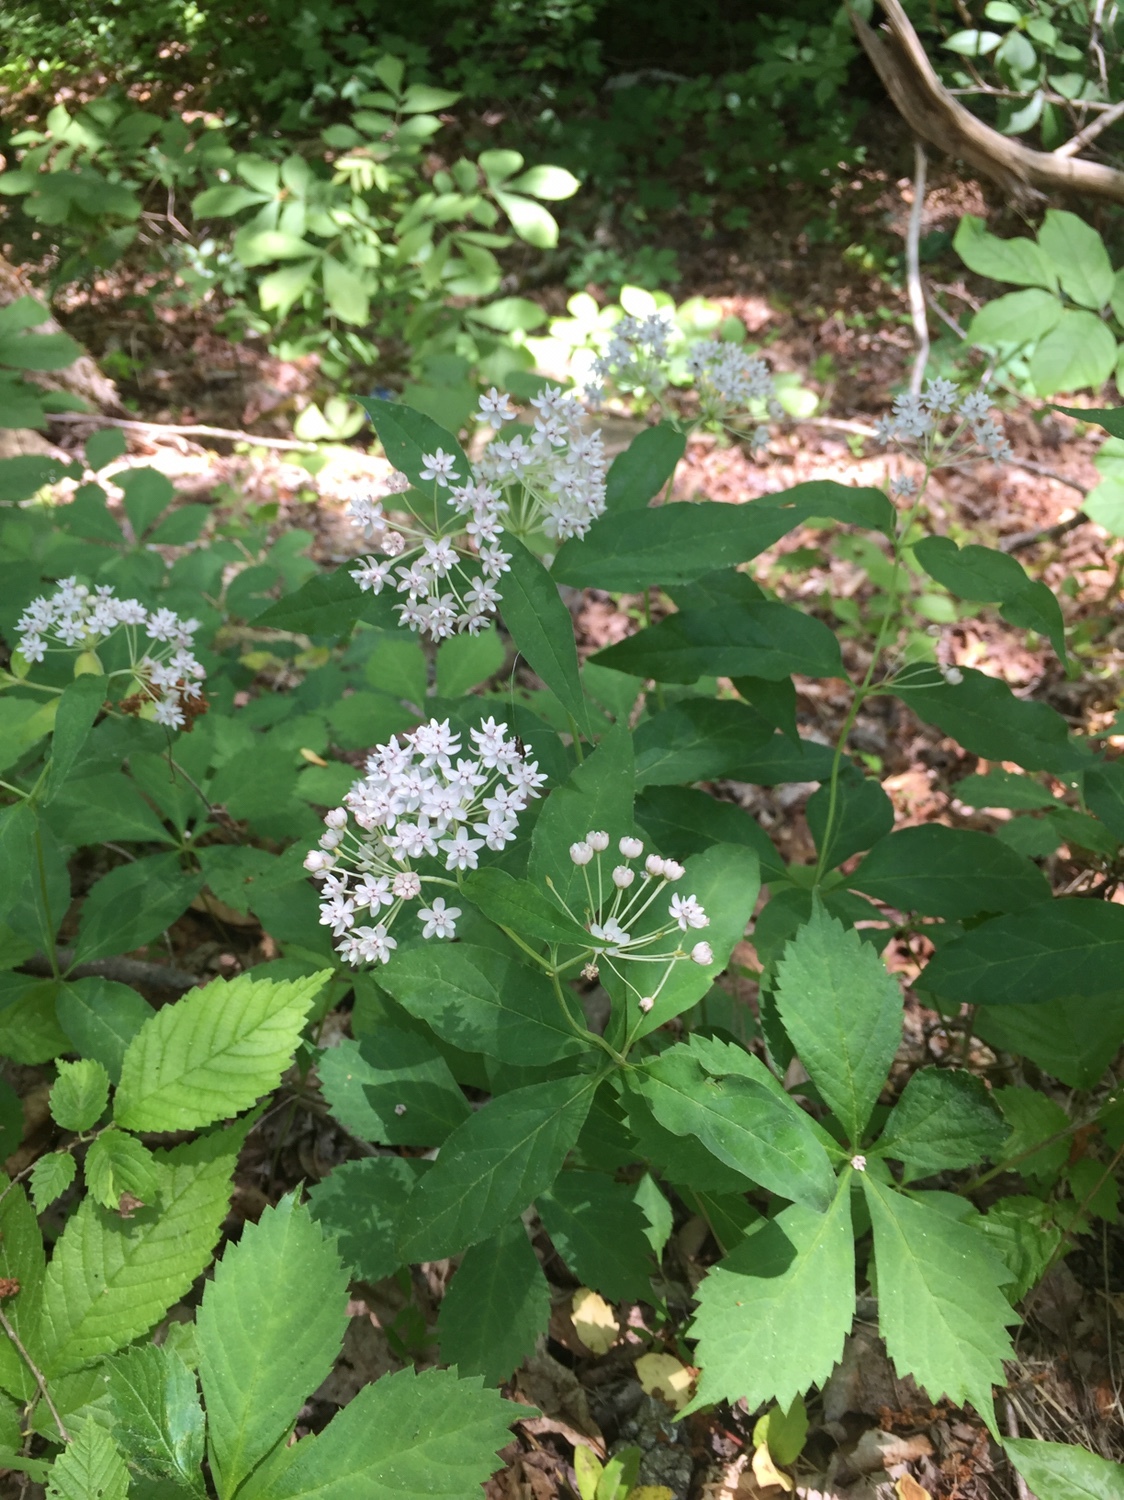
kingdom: Plantae
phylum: Tracheophyta
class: Magnoliopsida
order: Gentianales
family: Apocynaceae
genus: Asclepias
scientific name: Asclepias quadrifolia
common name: Whorled milkweed
